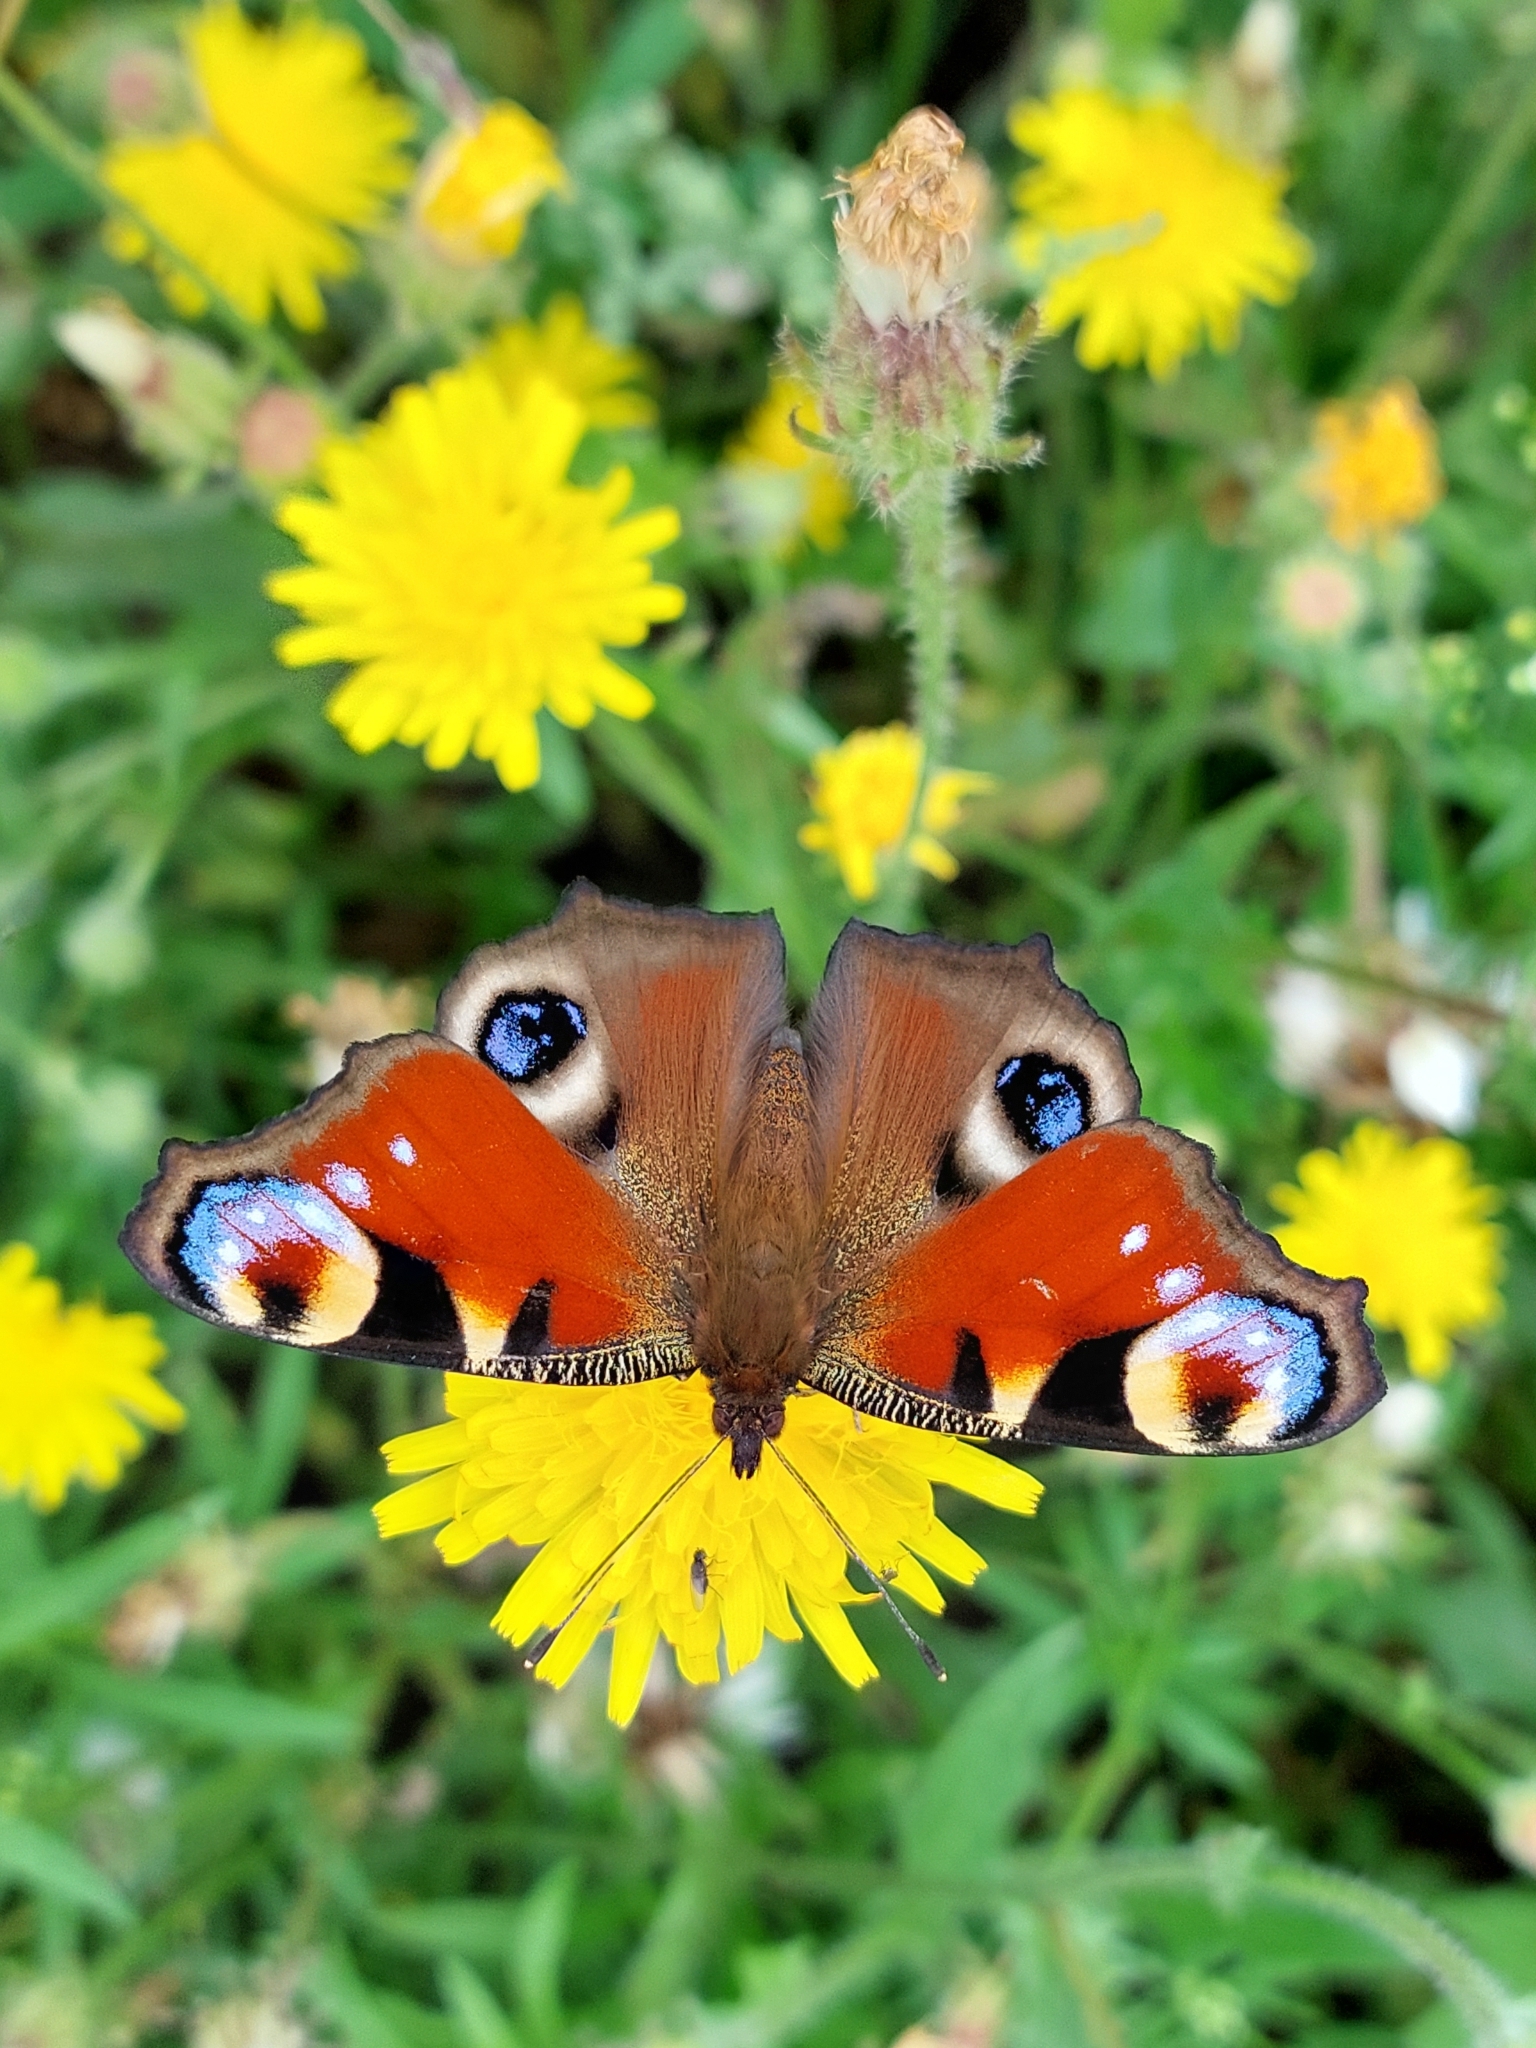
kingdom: Animalia
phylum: Arthropoda
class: Insecta
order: Lepidoptera
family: Nymphalidae
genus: Aglais
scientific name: Aglais io
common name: Peacock
